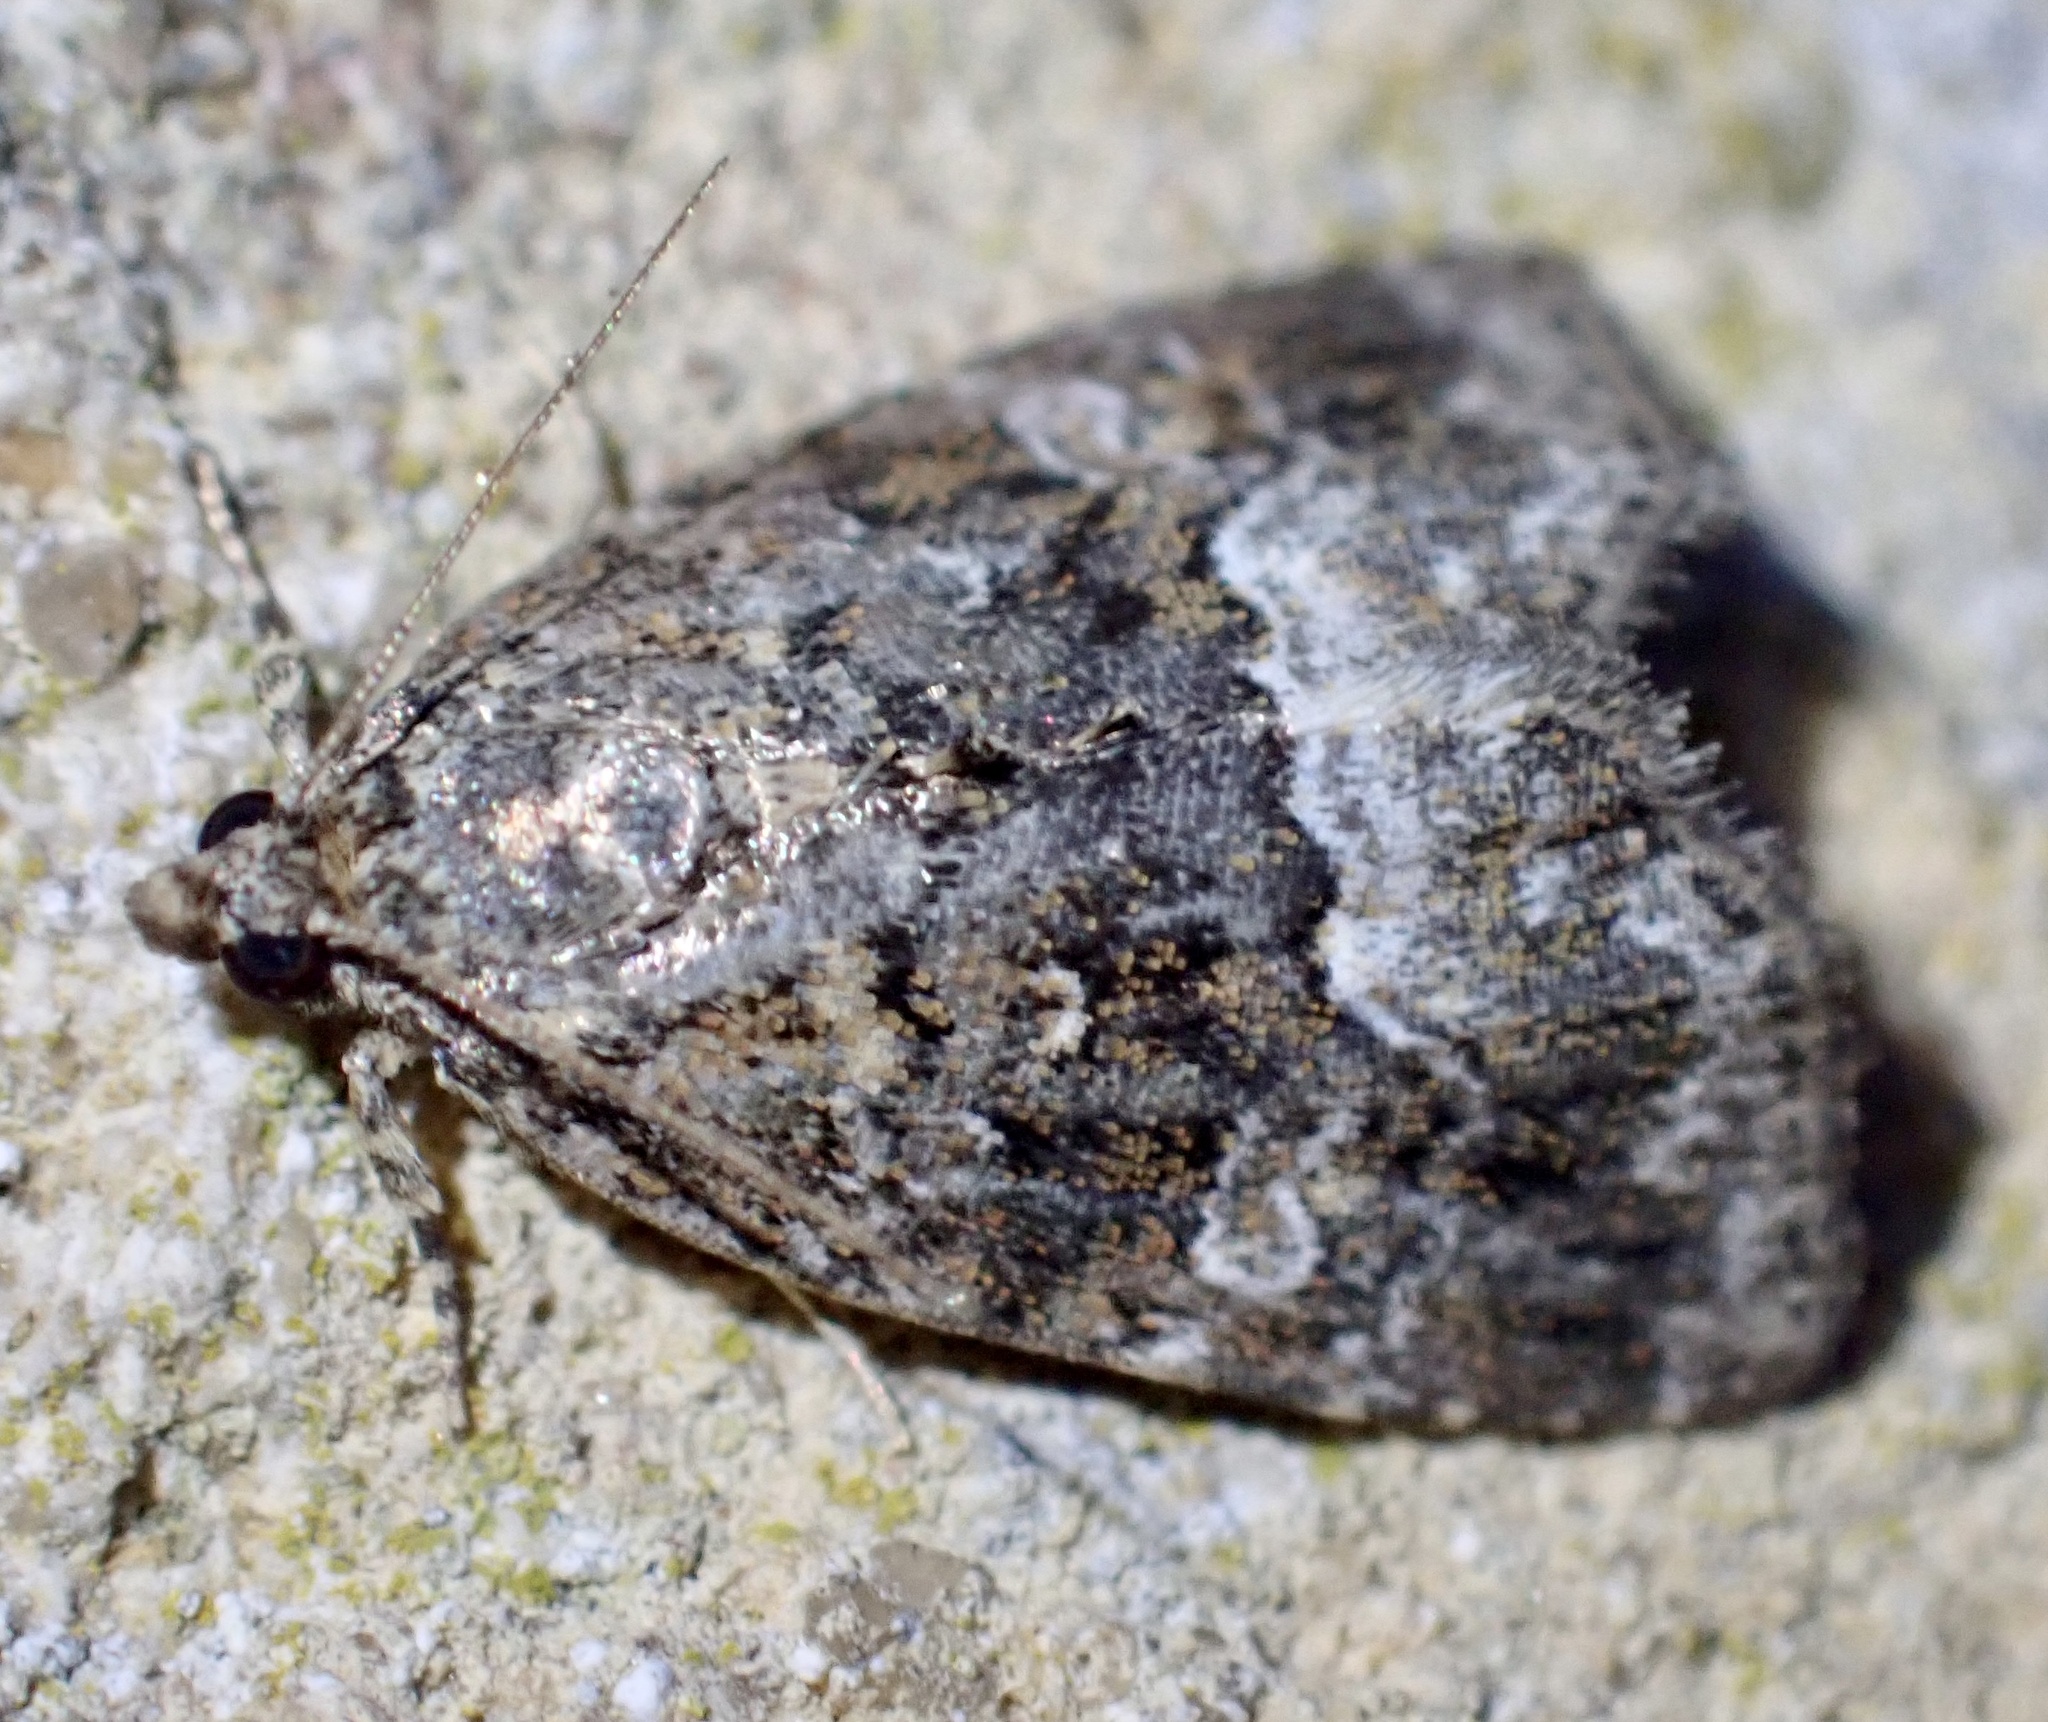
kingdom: Animalia
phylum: Arthropoda
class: Insecta
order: Lepidoptera
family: Noctuidae
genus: Deltote
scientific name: Deltote pygarga
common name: Marbled white spot
